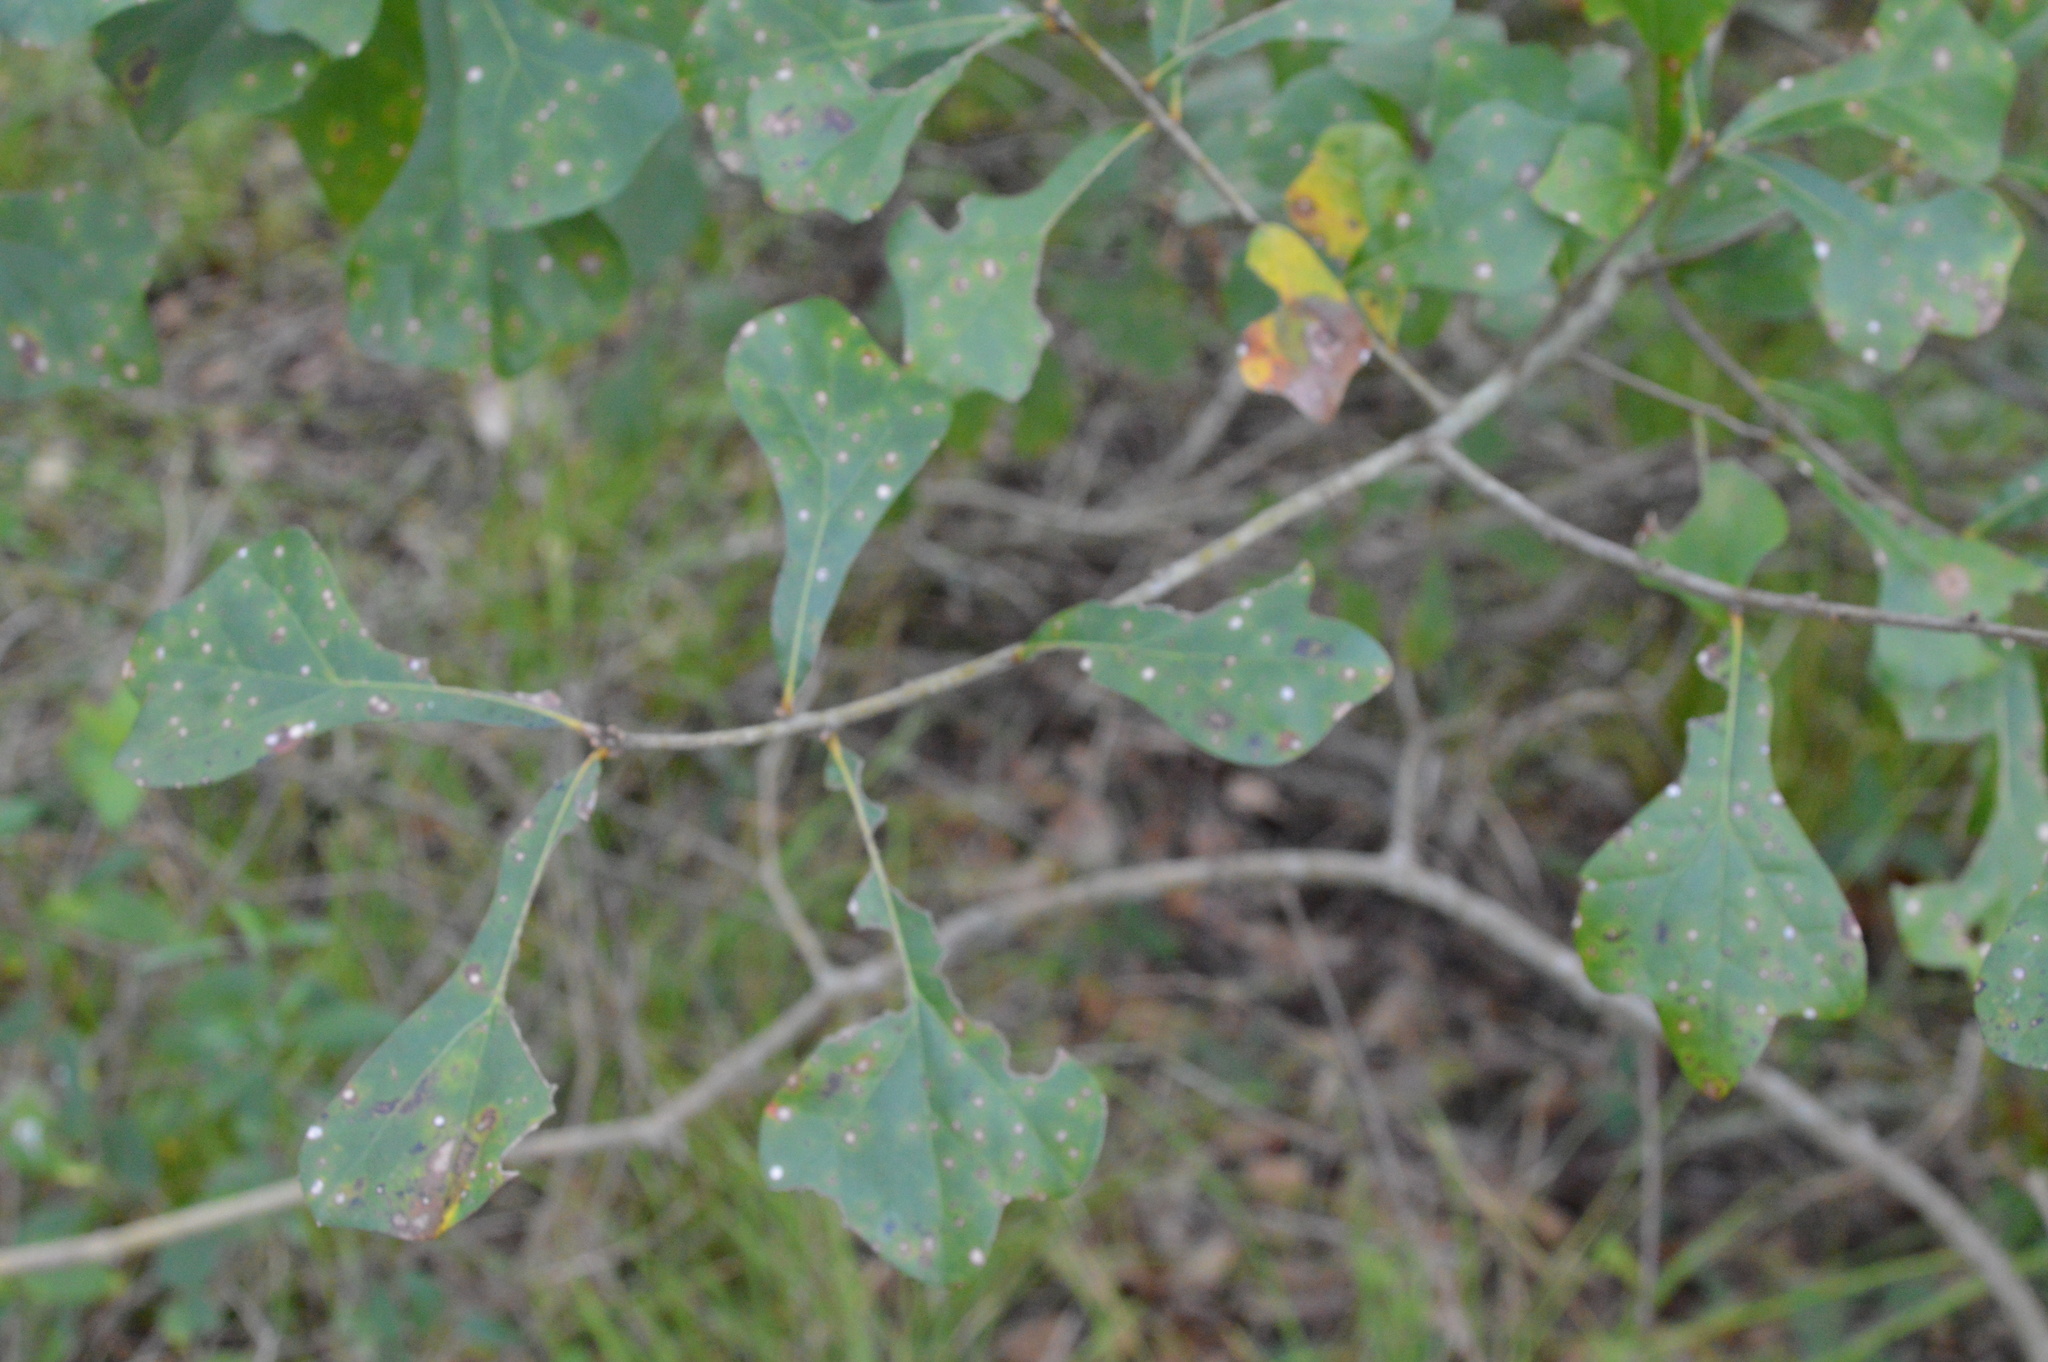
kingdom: Plantae
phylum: Tracheophyta
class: Magnoliopsida
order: Fagales
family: Fagaceae
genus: Quercus
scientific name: Quercus nigra
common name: Water oak
